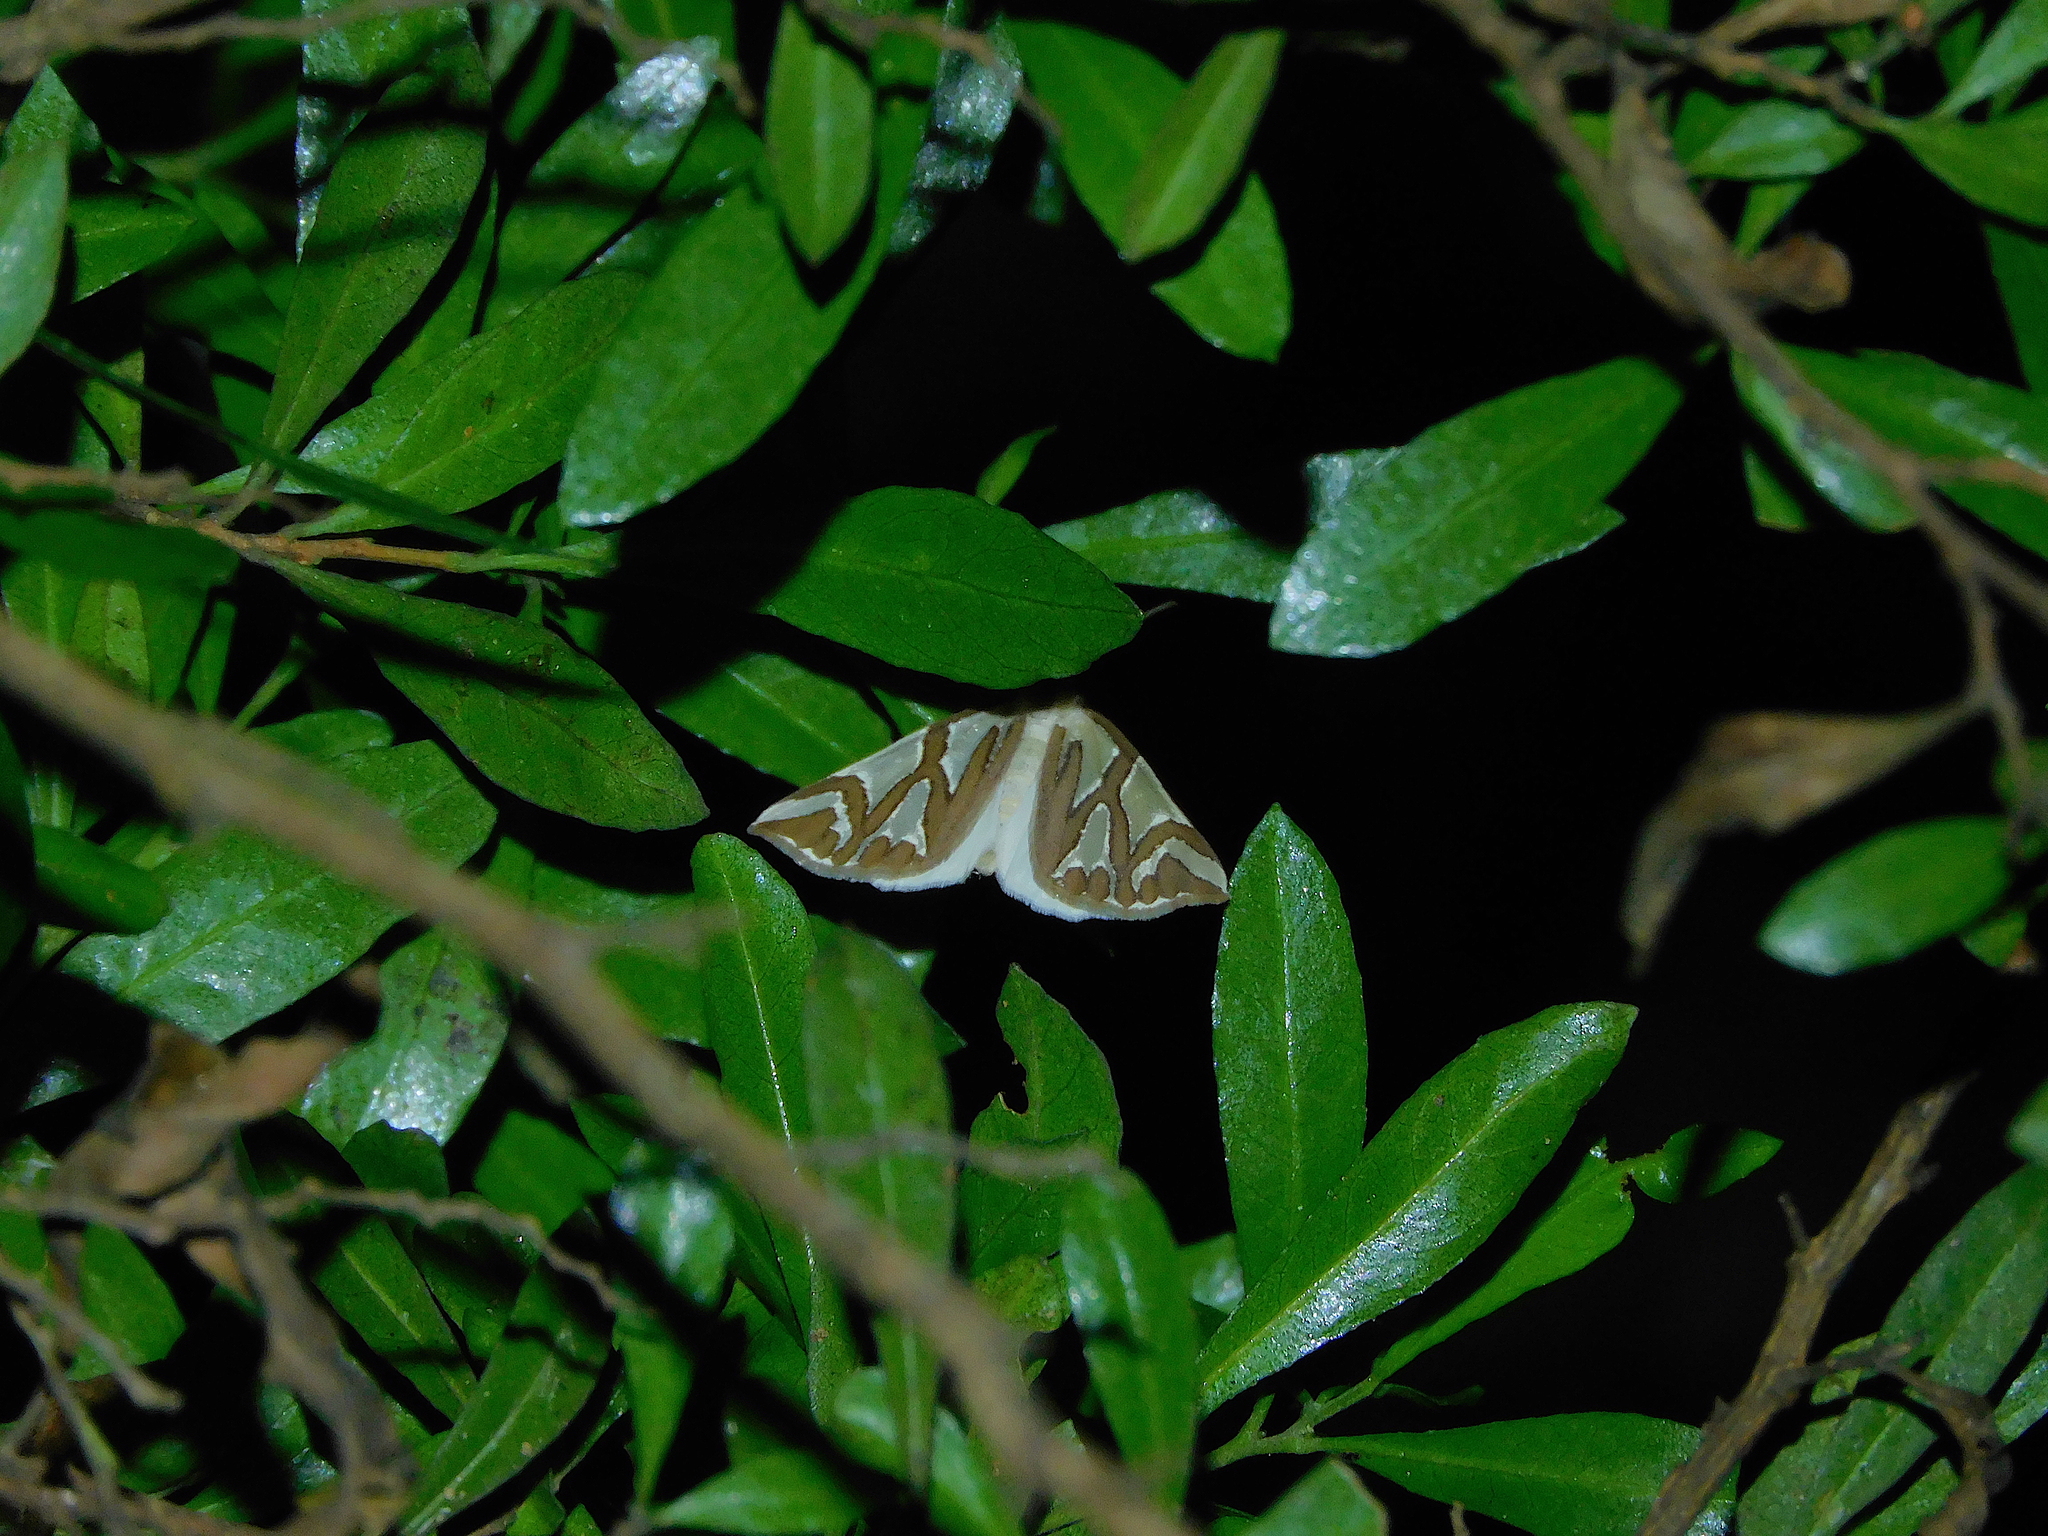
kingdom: Animalia
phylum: Arthropoda
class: Insecta
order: Lepidoptera
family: Geometridae
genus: Thalaina
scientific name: Thalaina inscripta
